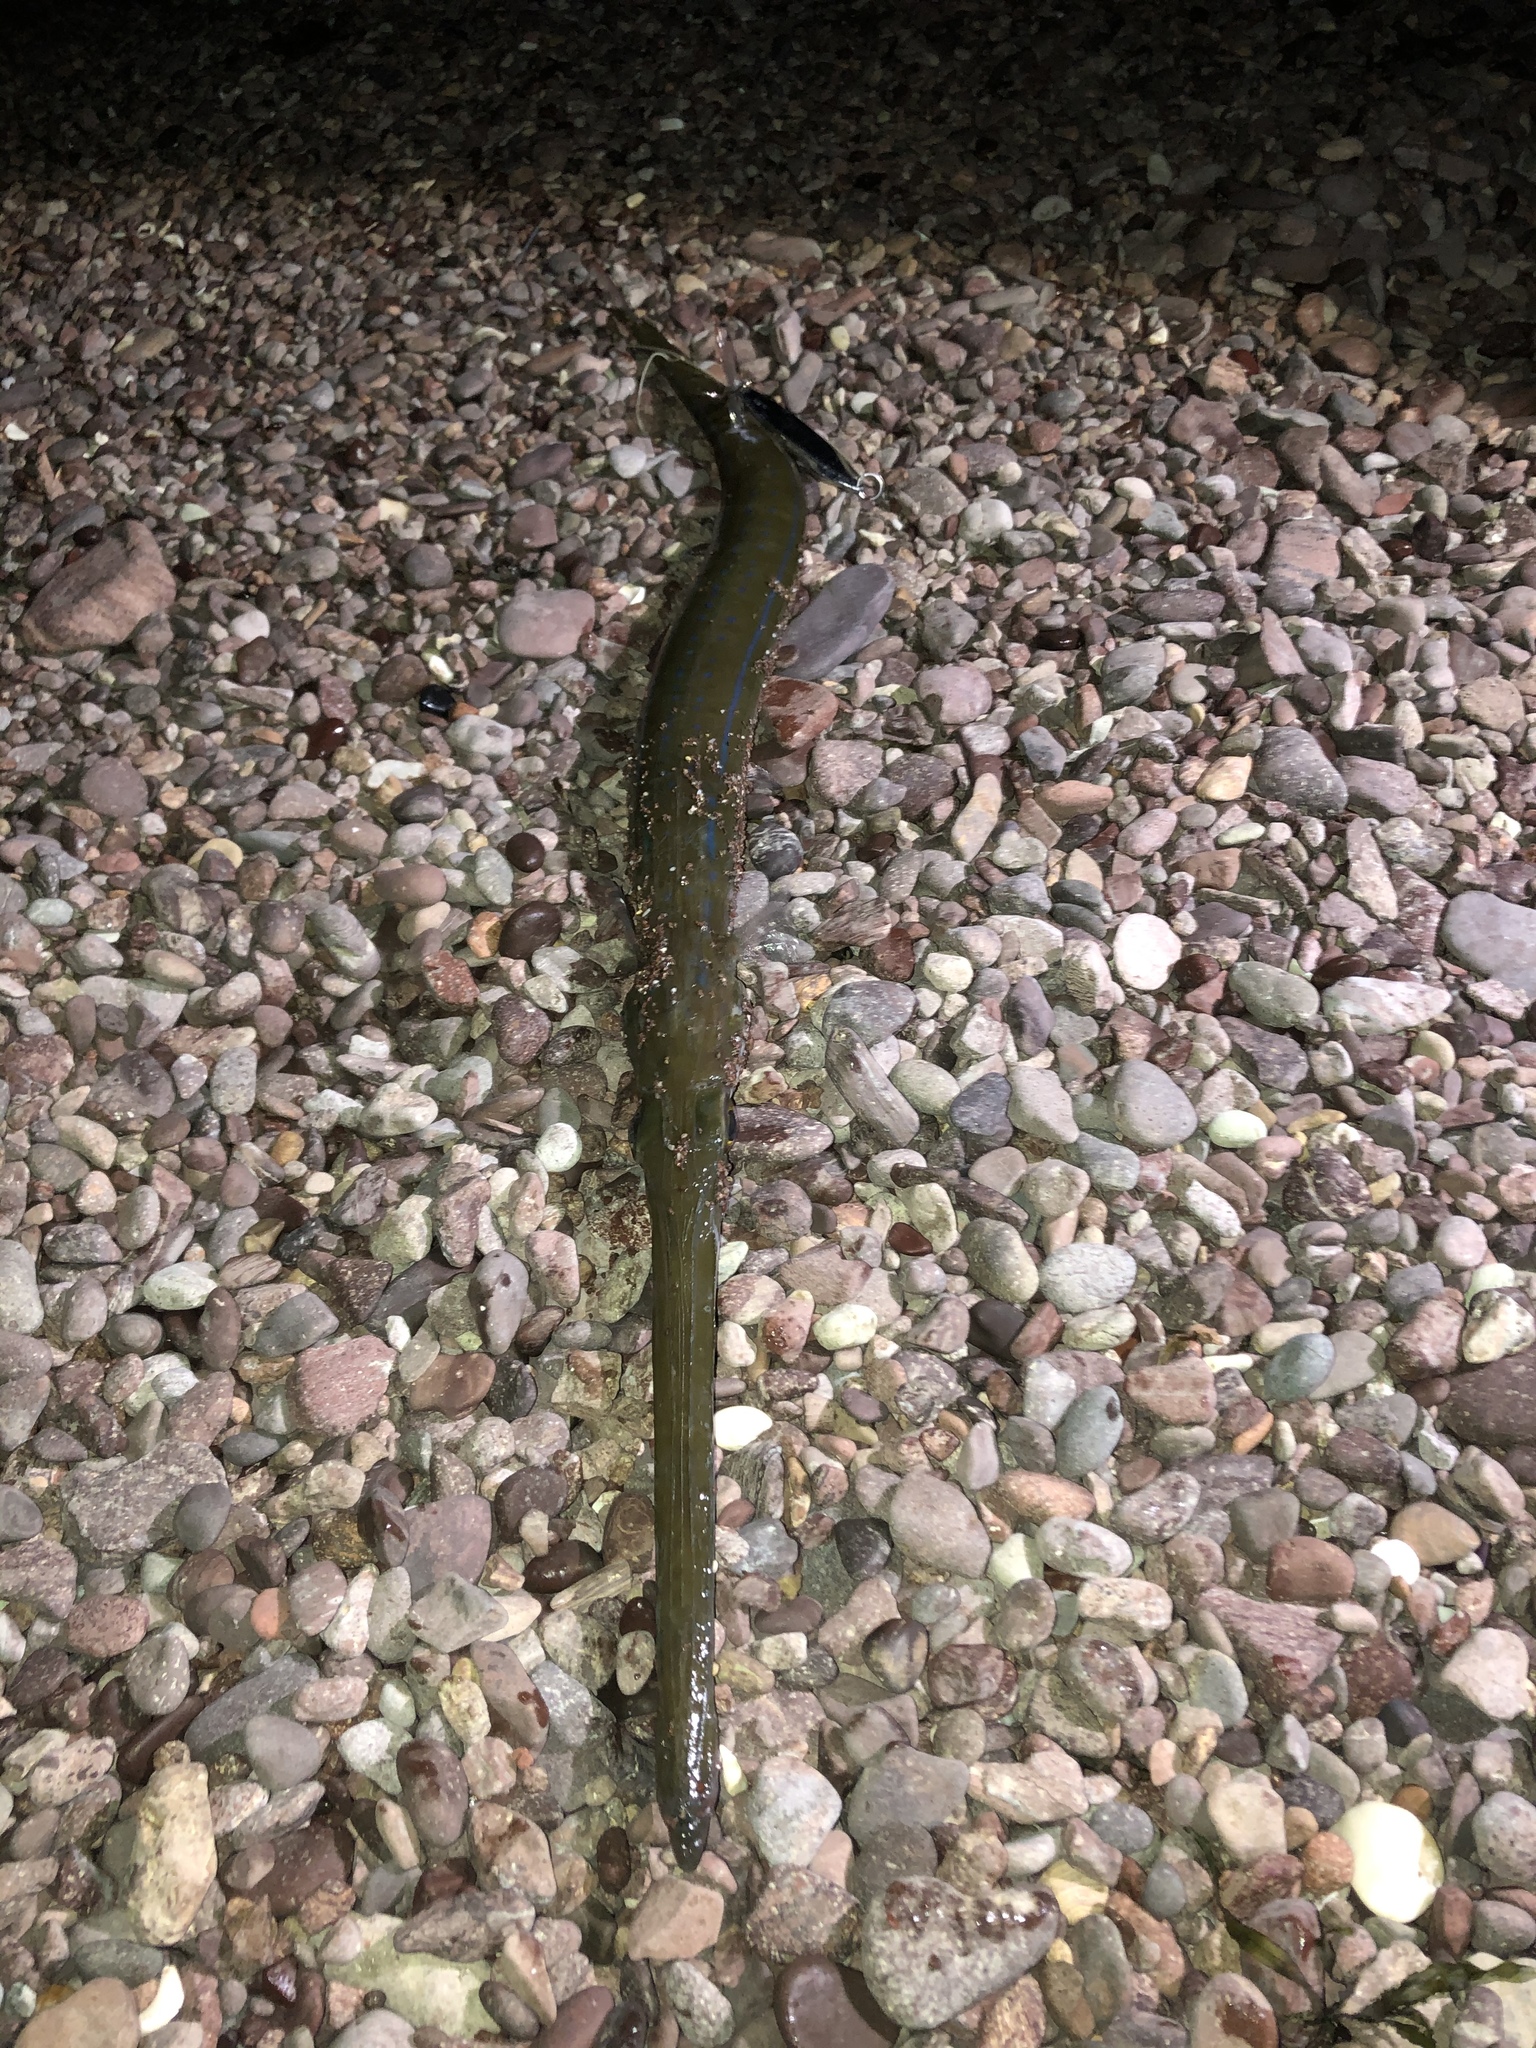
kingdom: Animalia
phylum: Chordata
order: Syngnathiformes
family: Fistulariidae
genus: Fistularia
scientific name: Fistularia commersonii
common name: Bluespotted cornetfish
